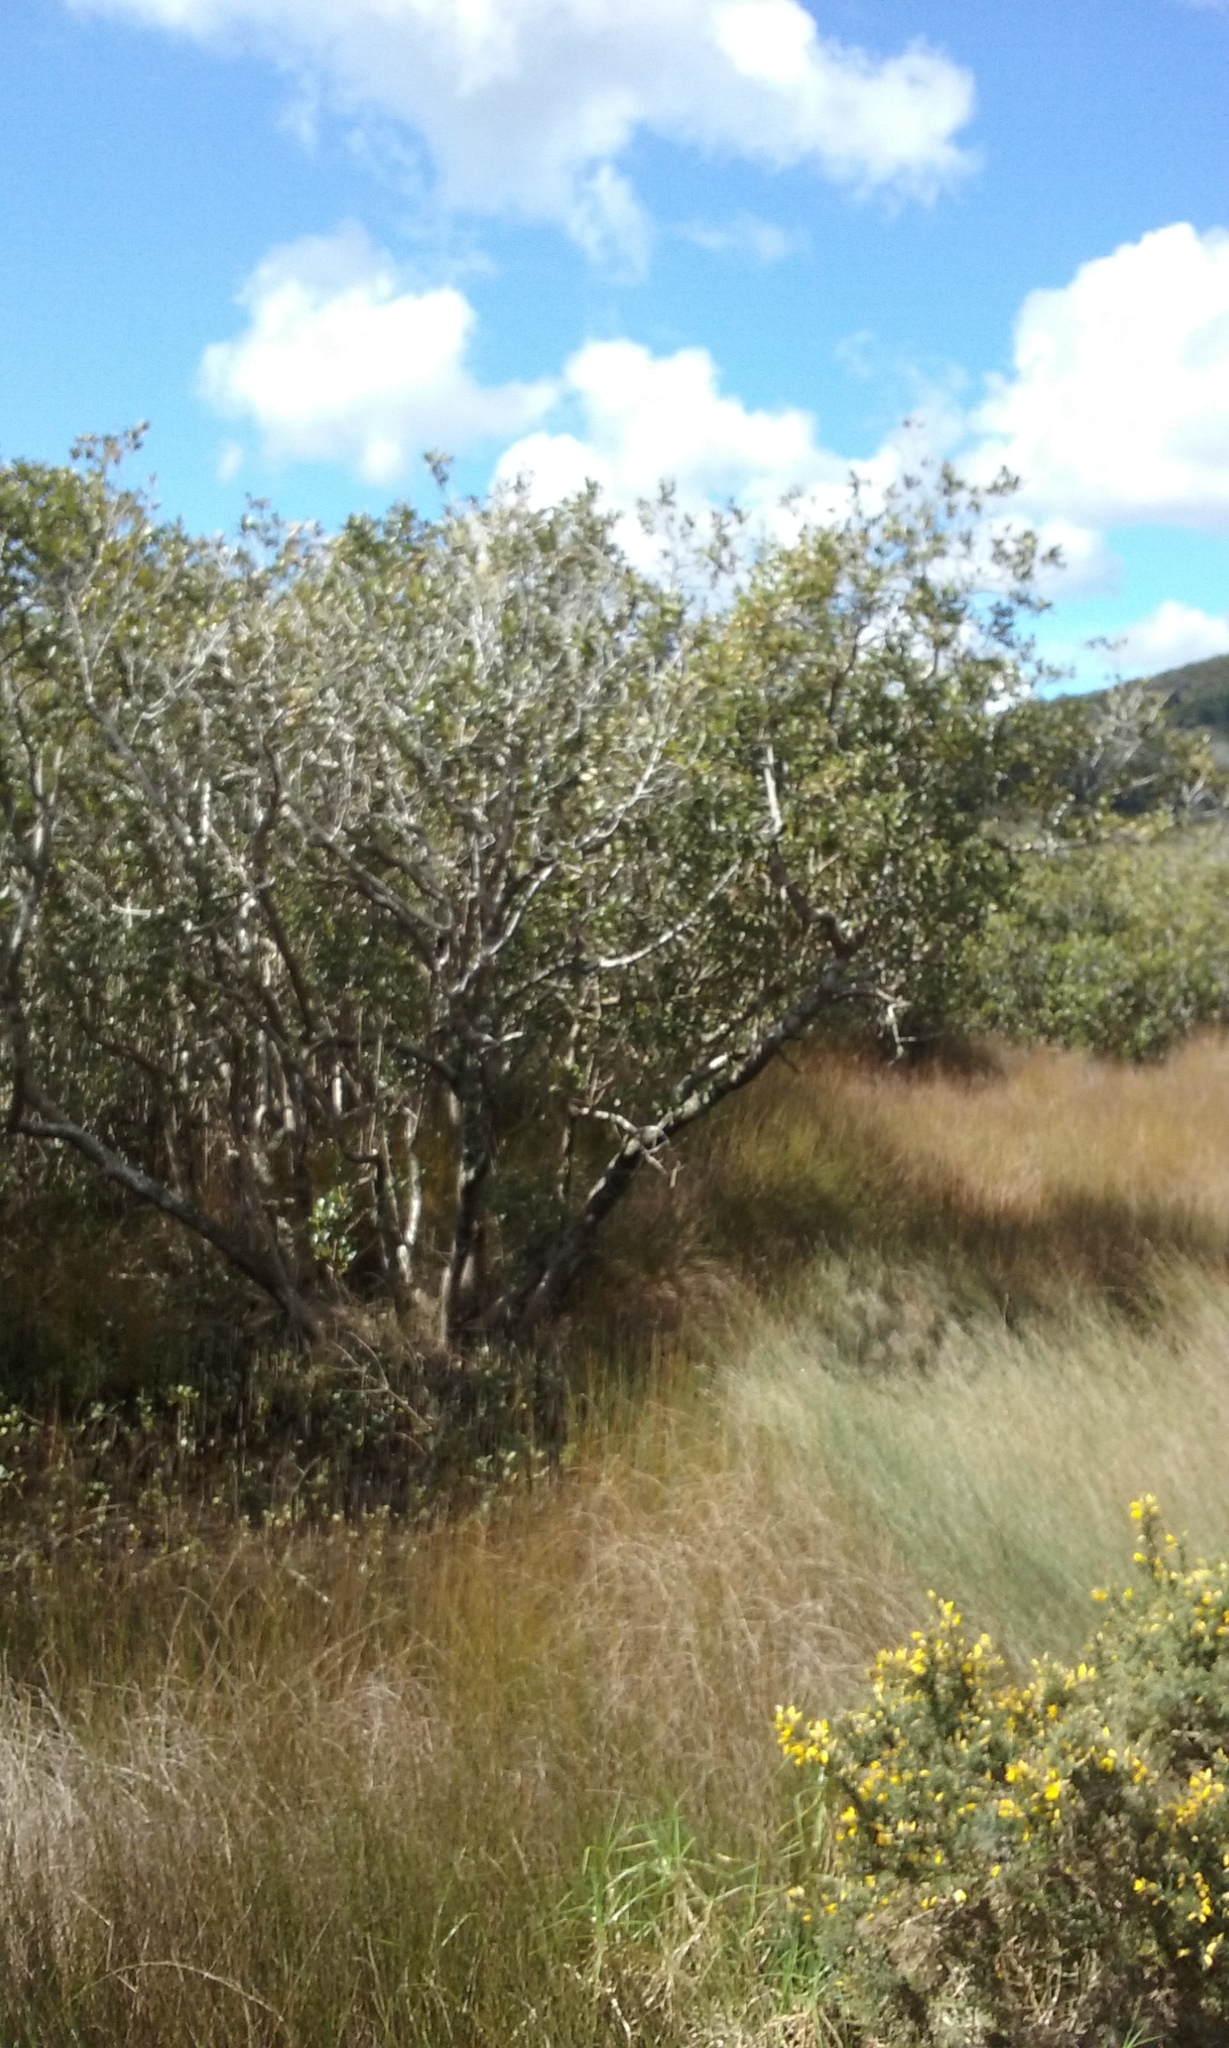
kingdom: Plantae
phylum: Tracheophyta
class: Magnoliopsida
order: Lamiales
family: Acanthaceae
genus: Avicennia
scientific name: Avicennia marina
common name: Gray mangrove
